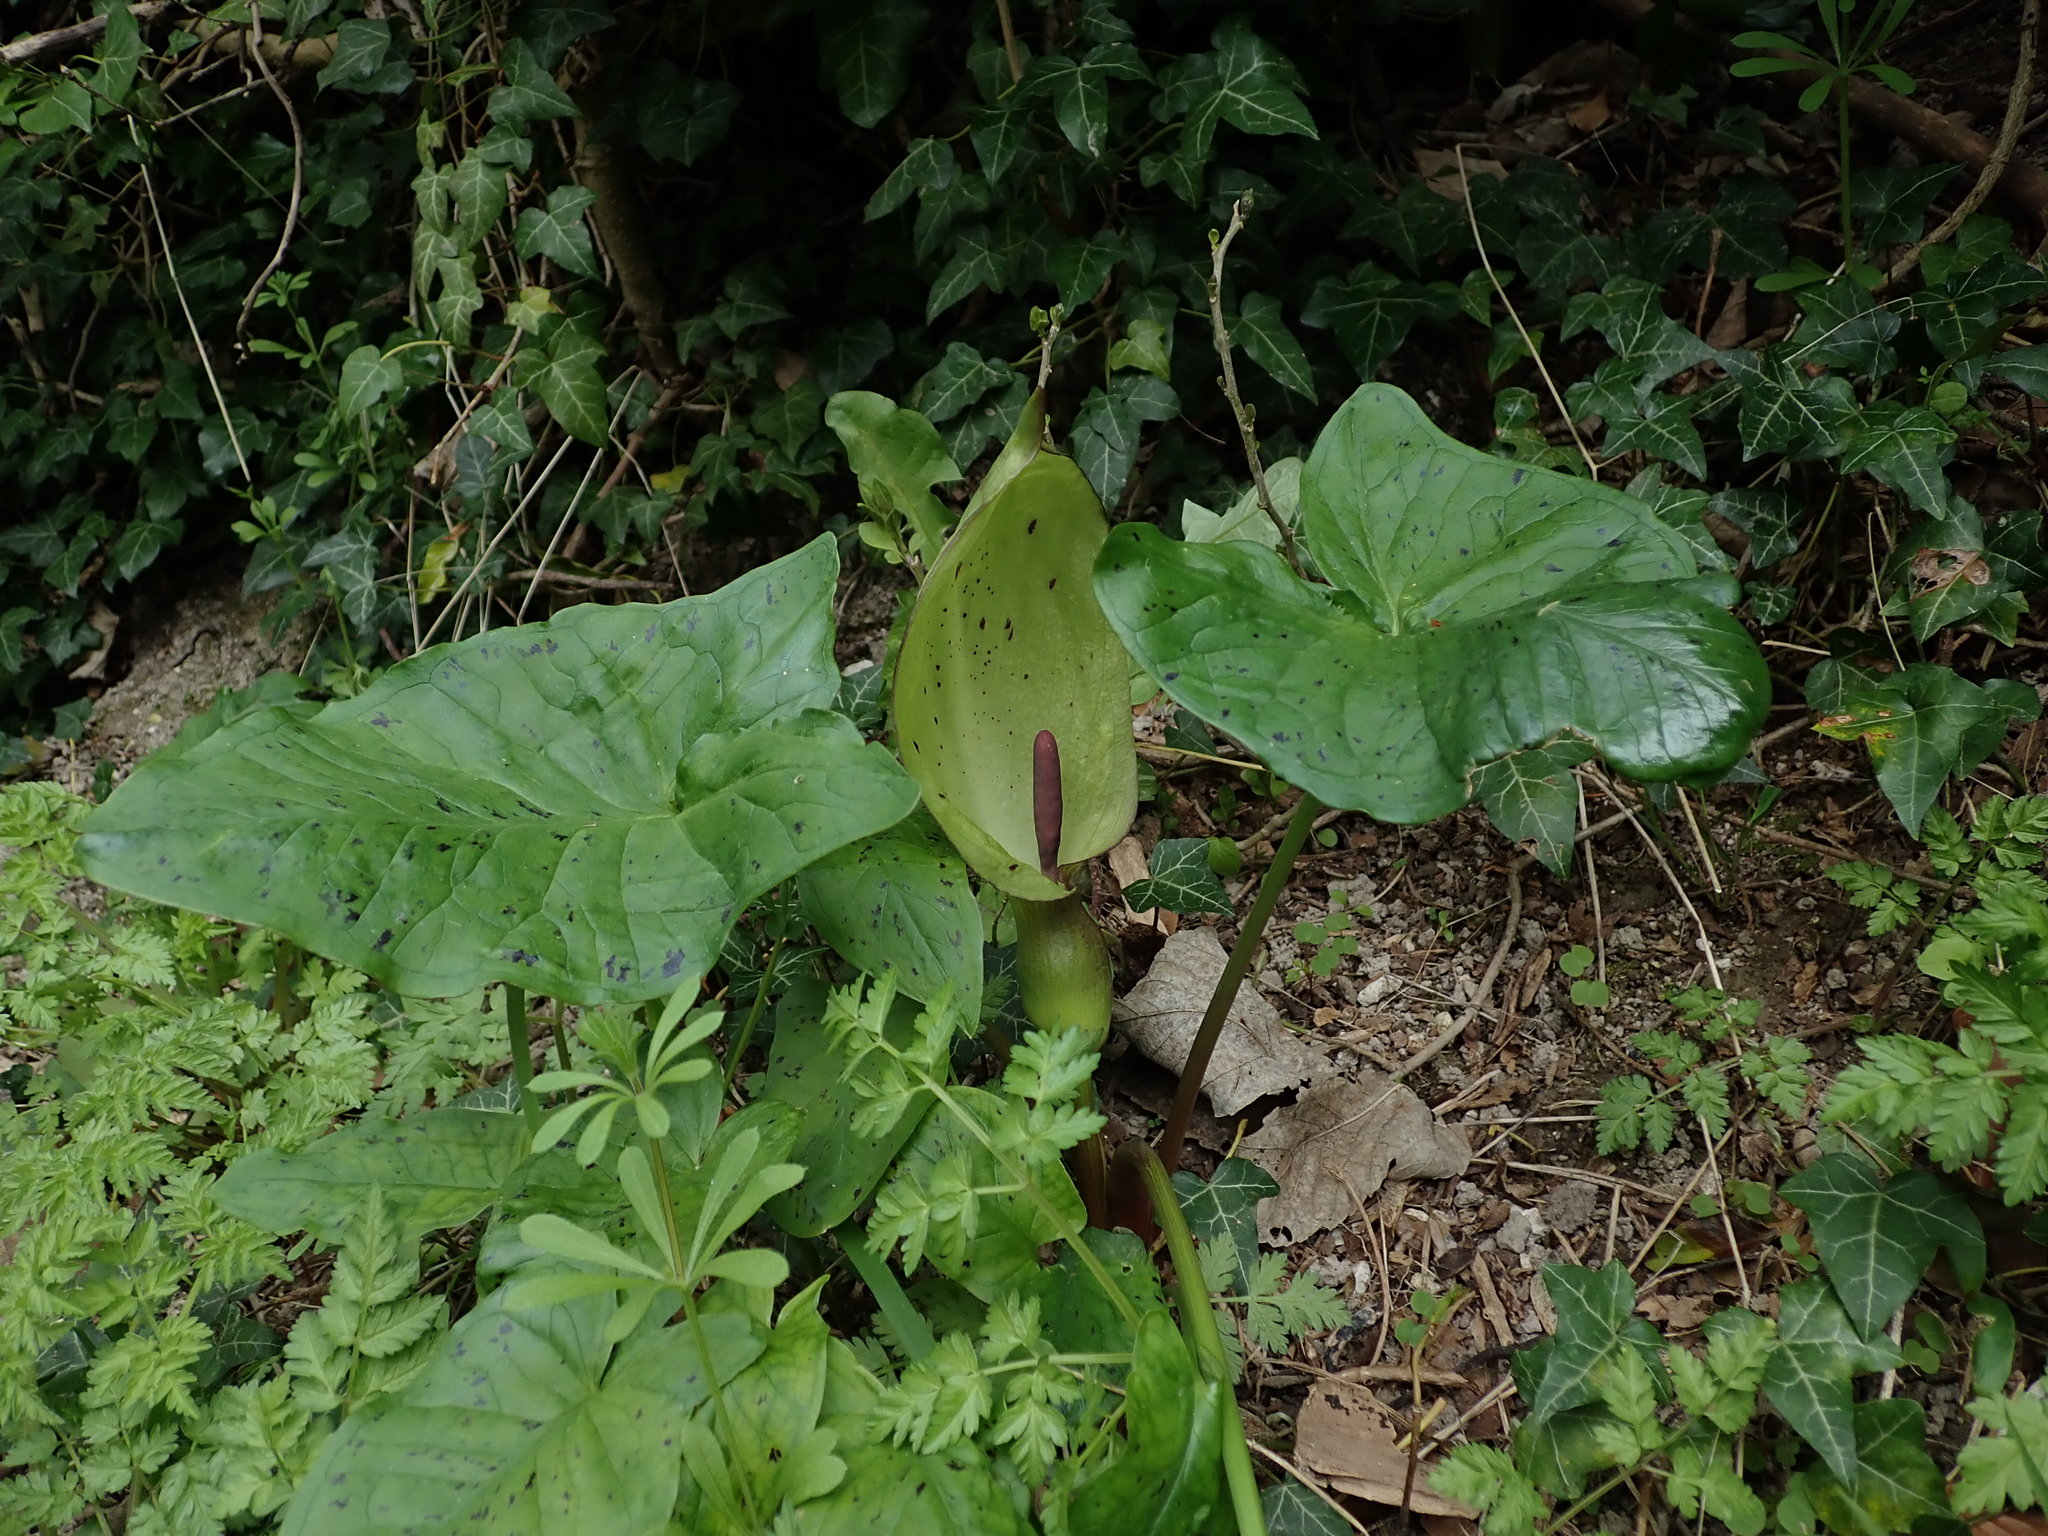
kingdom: Plantae
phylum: Tracheophyta
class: Liliopsida
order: Alismatales
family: Araceae
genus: Arum
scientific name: Arum maculatum
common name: Lords-and-ladies
